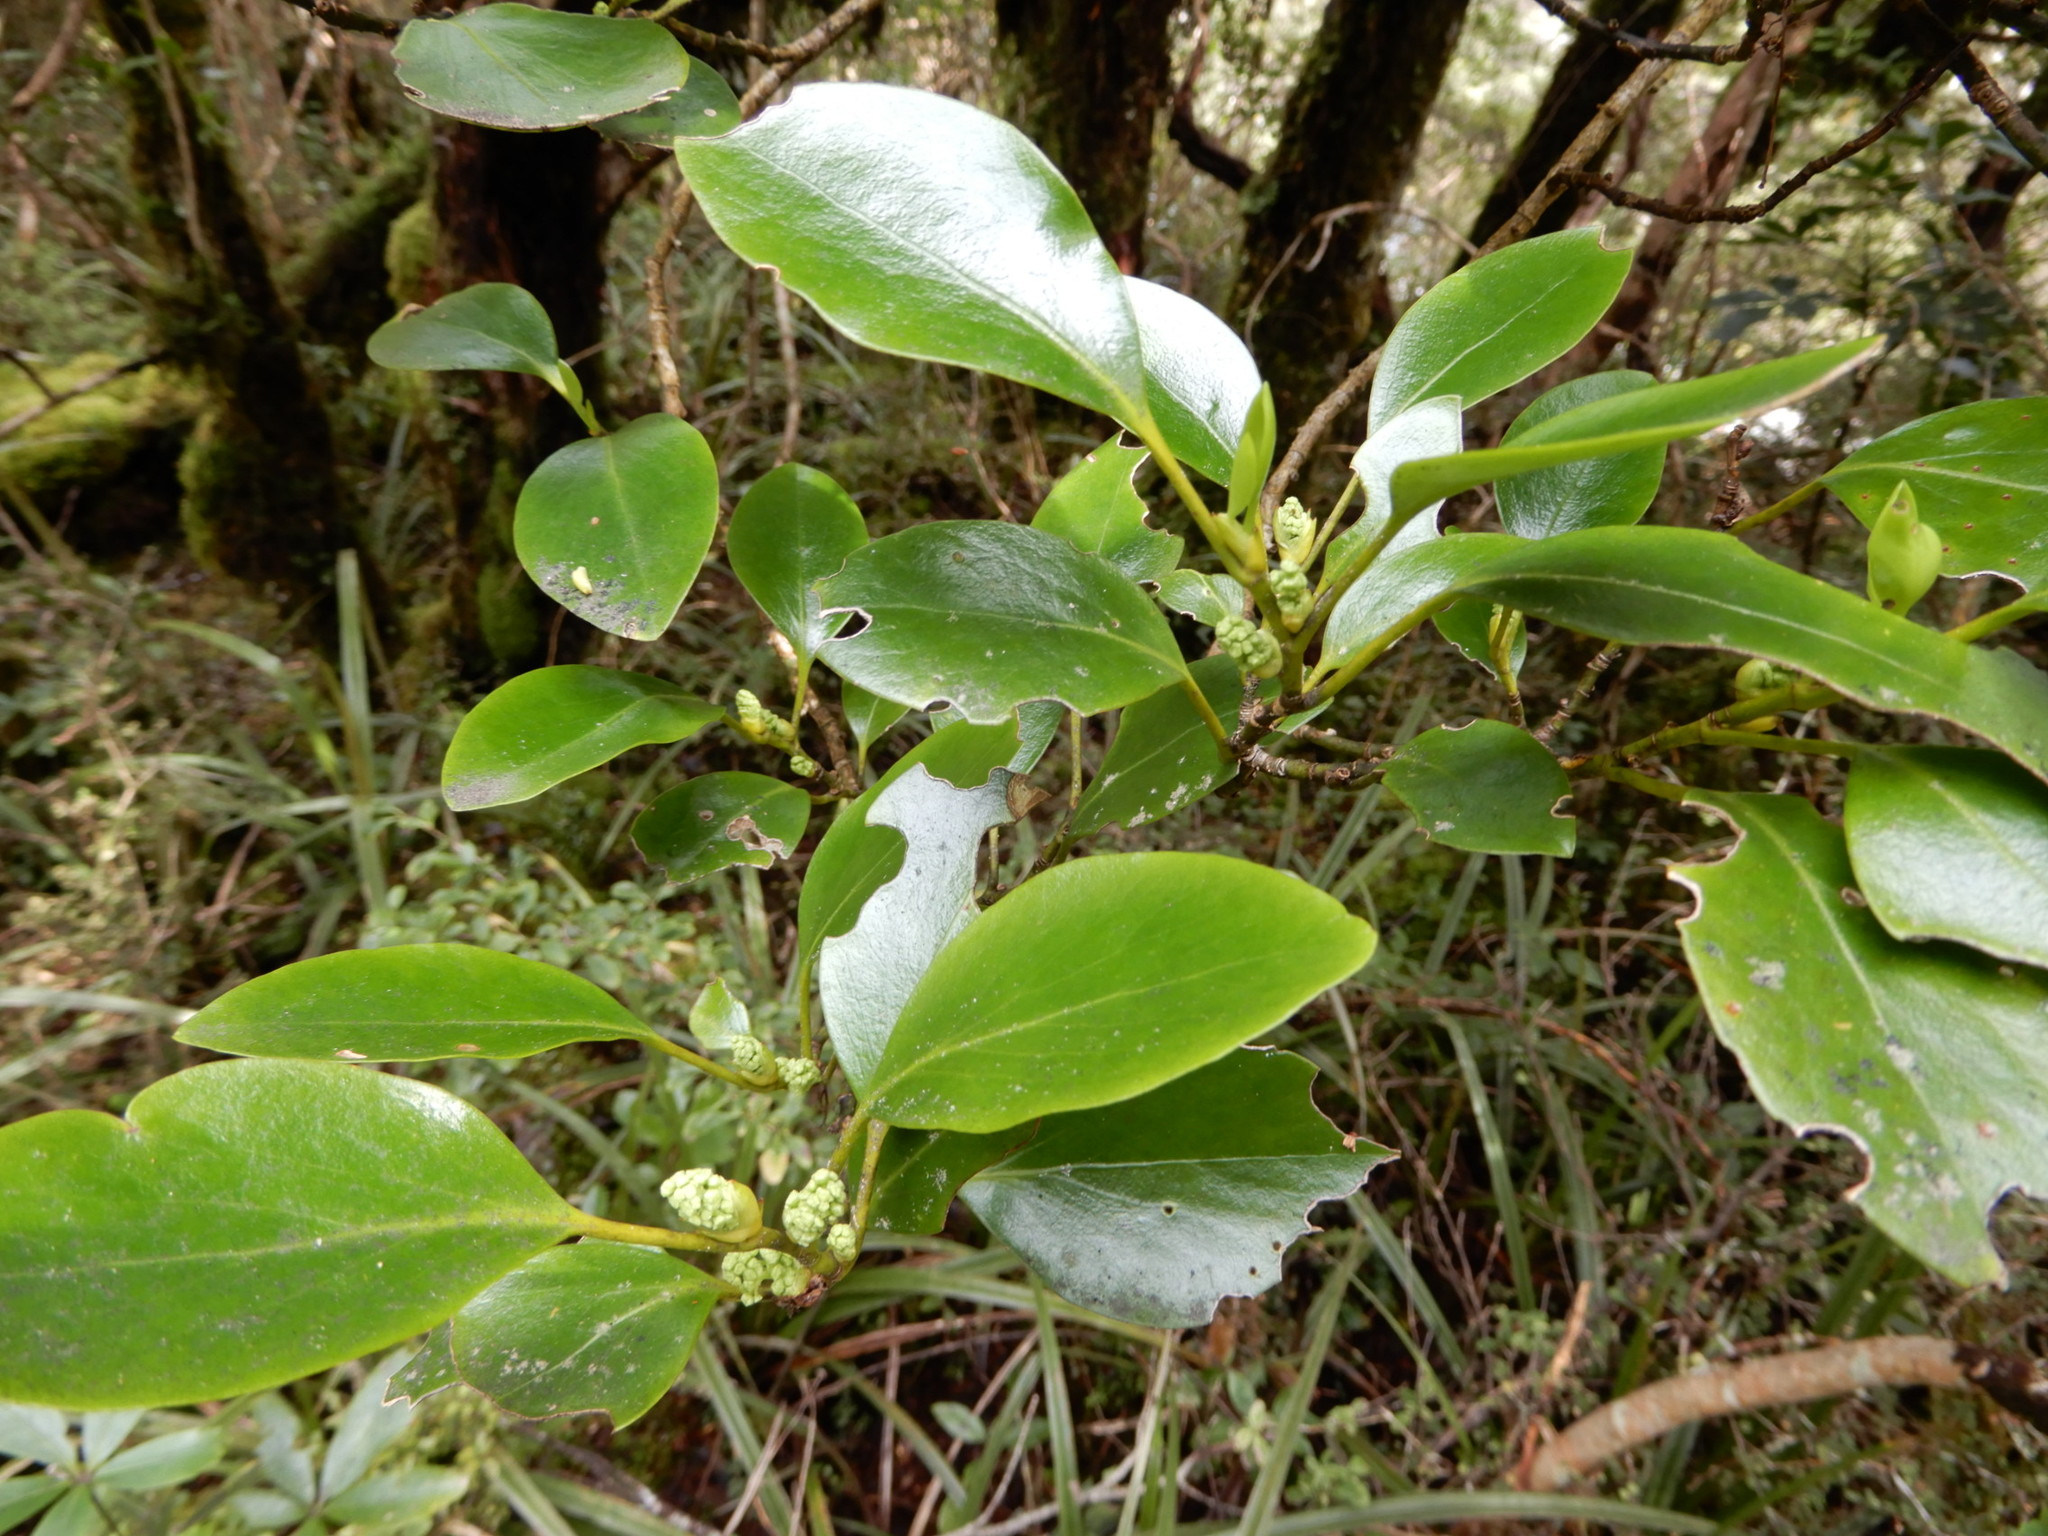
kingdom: Plantae
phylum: Tracheophyta
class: Magnoliopsida
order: Apiales
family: Griseliniaceae
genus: Griselinia
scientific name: Griselinia littoralis
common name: New zealand broadleaf
